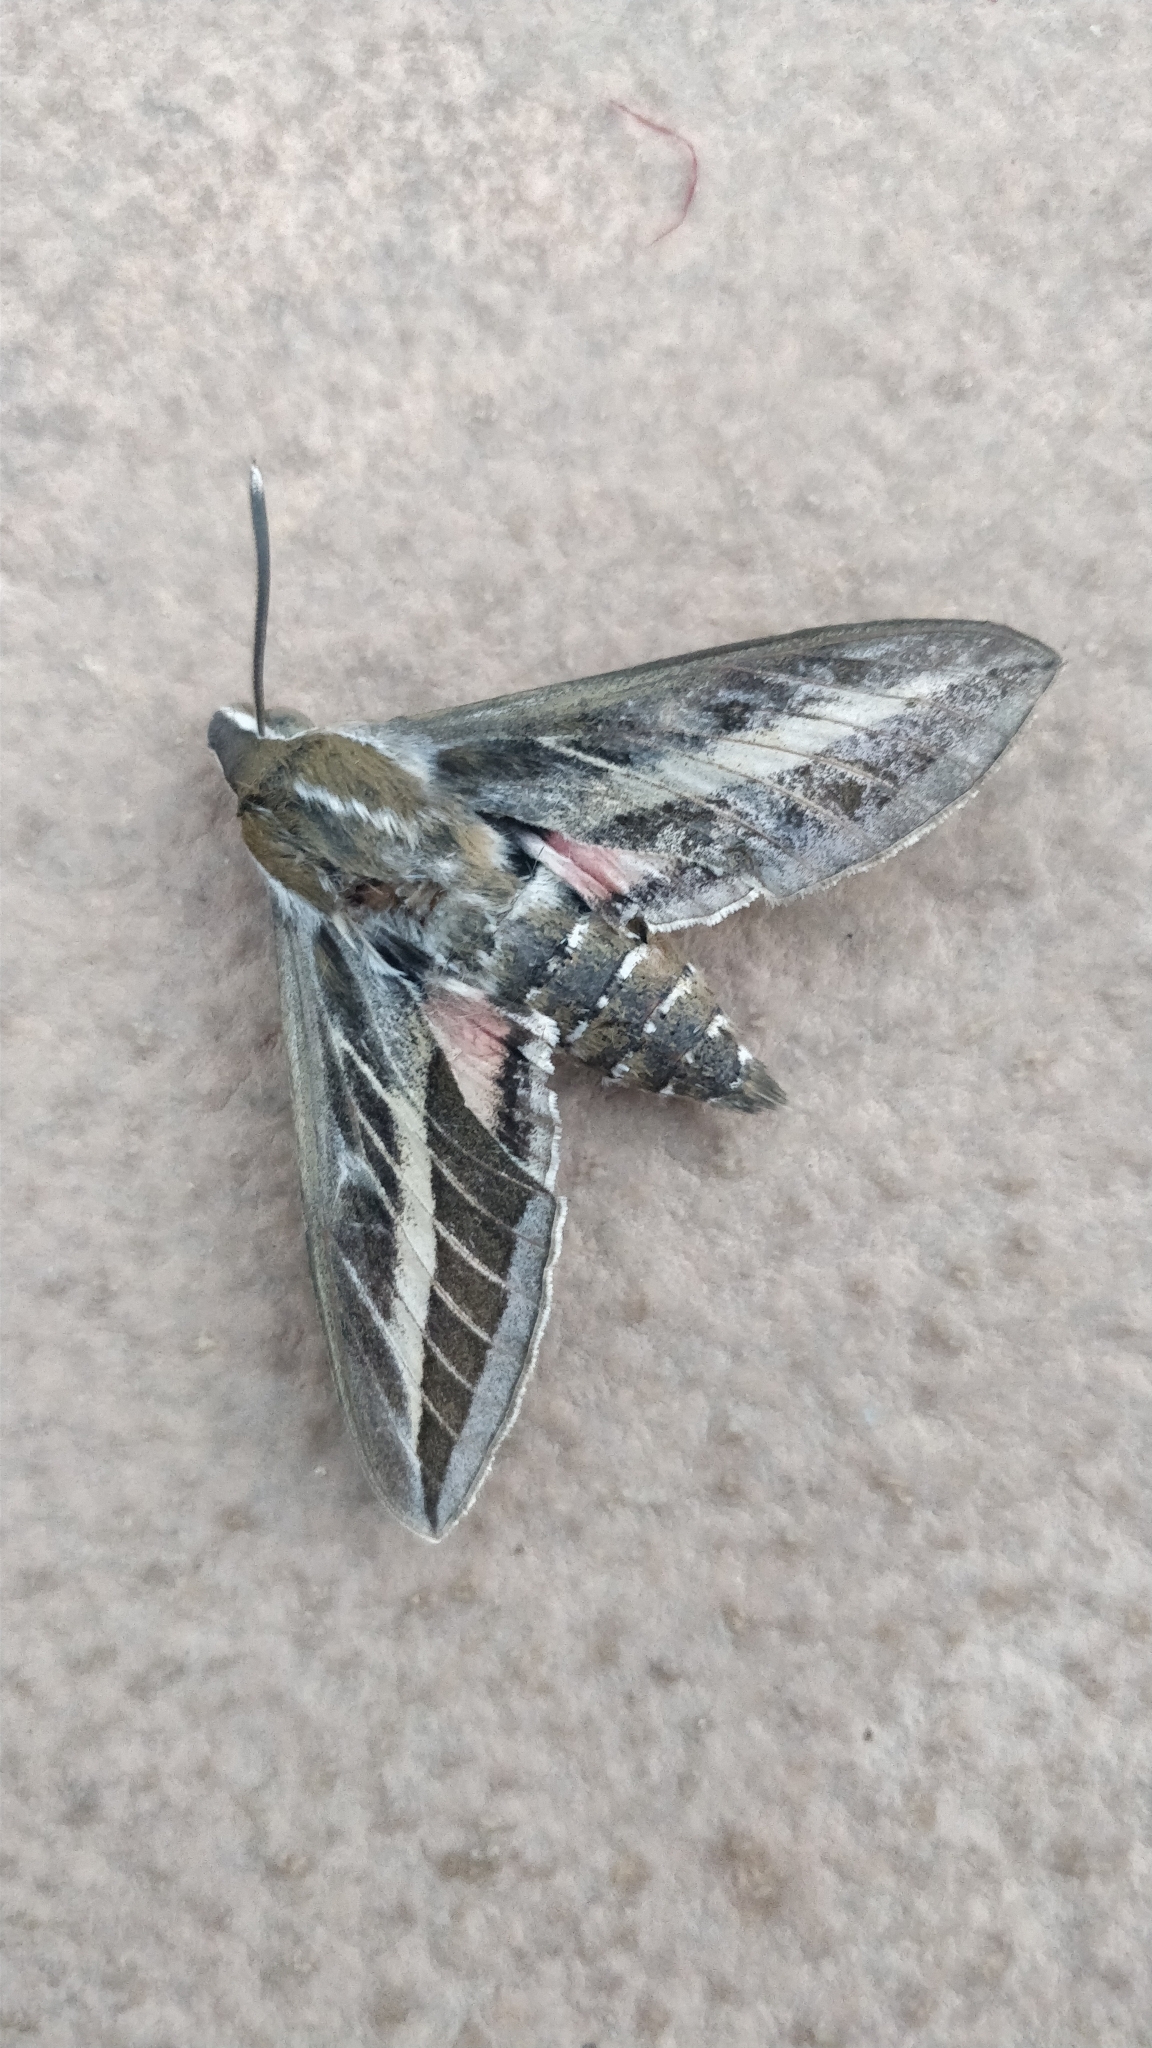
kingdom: Animalia
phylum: Arthropoda
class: Insecta
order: Lepidoptera
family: Sphingidae
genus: Hyles
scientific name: Hyles livornica
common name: Striped hawk-moth
